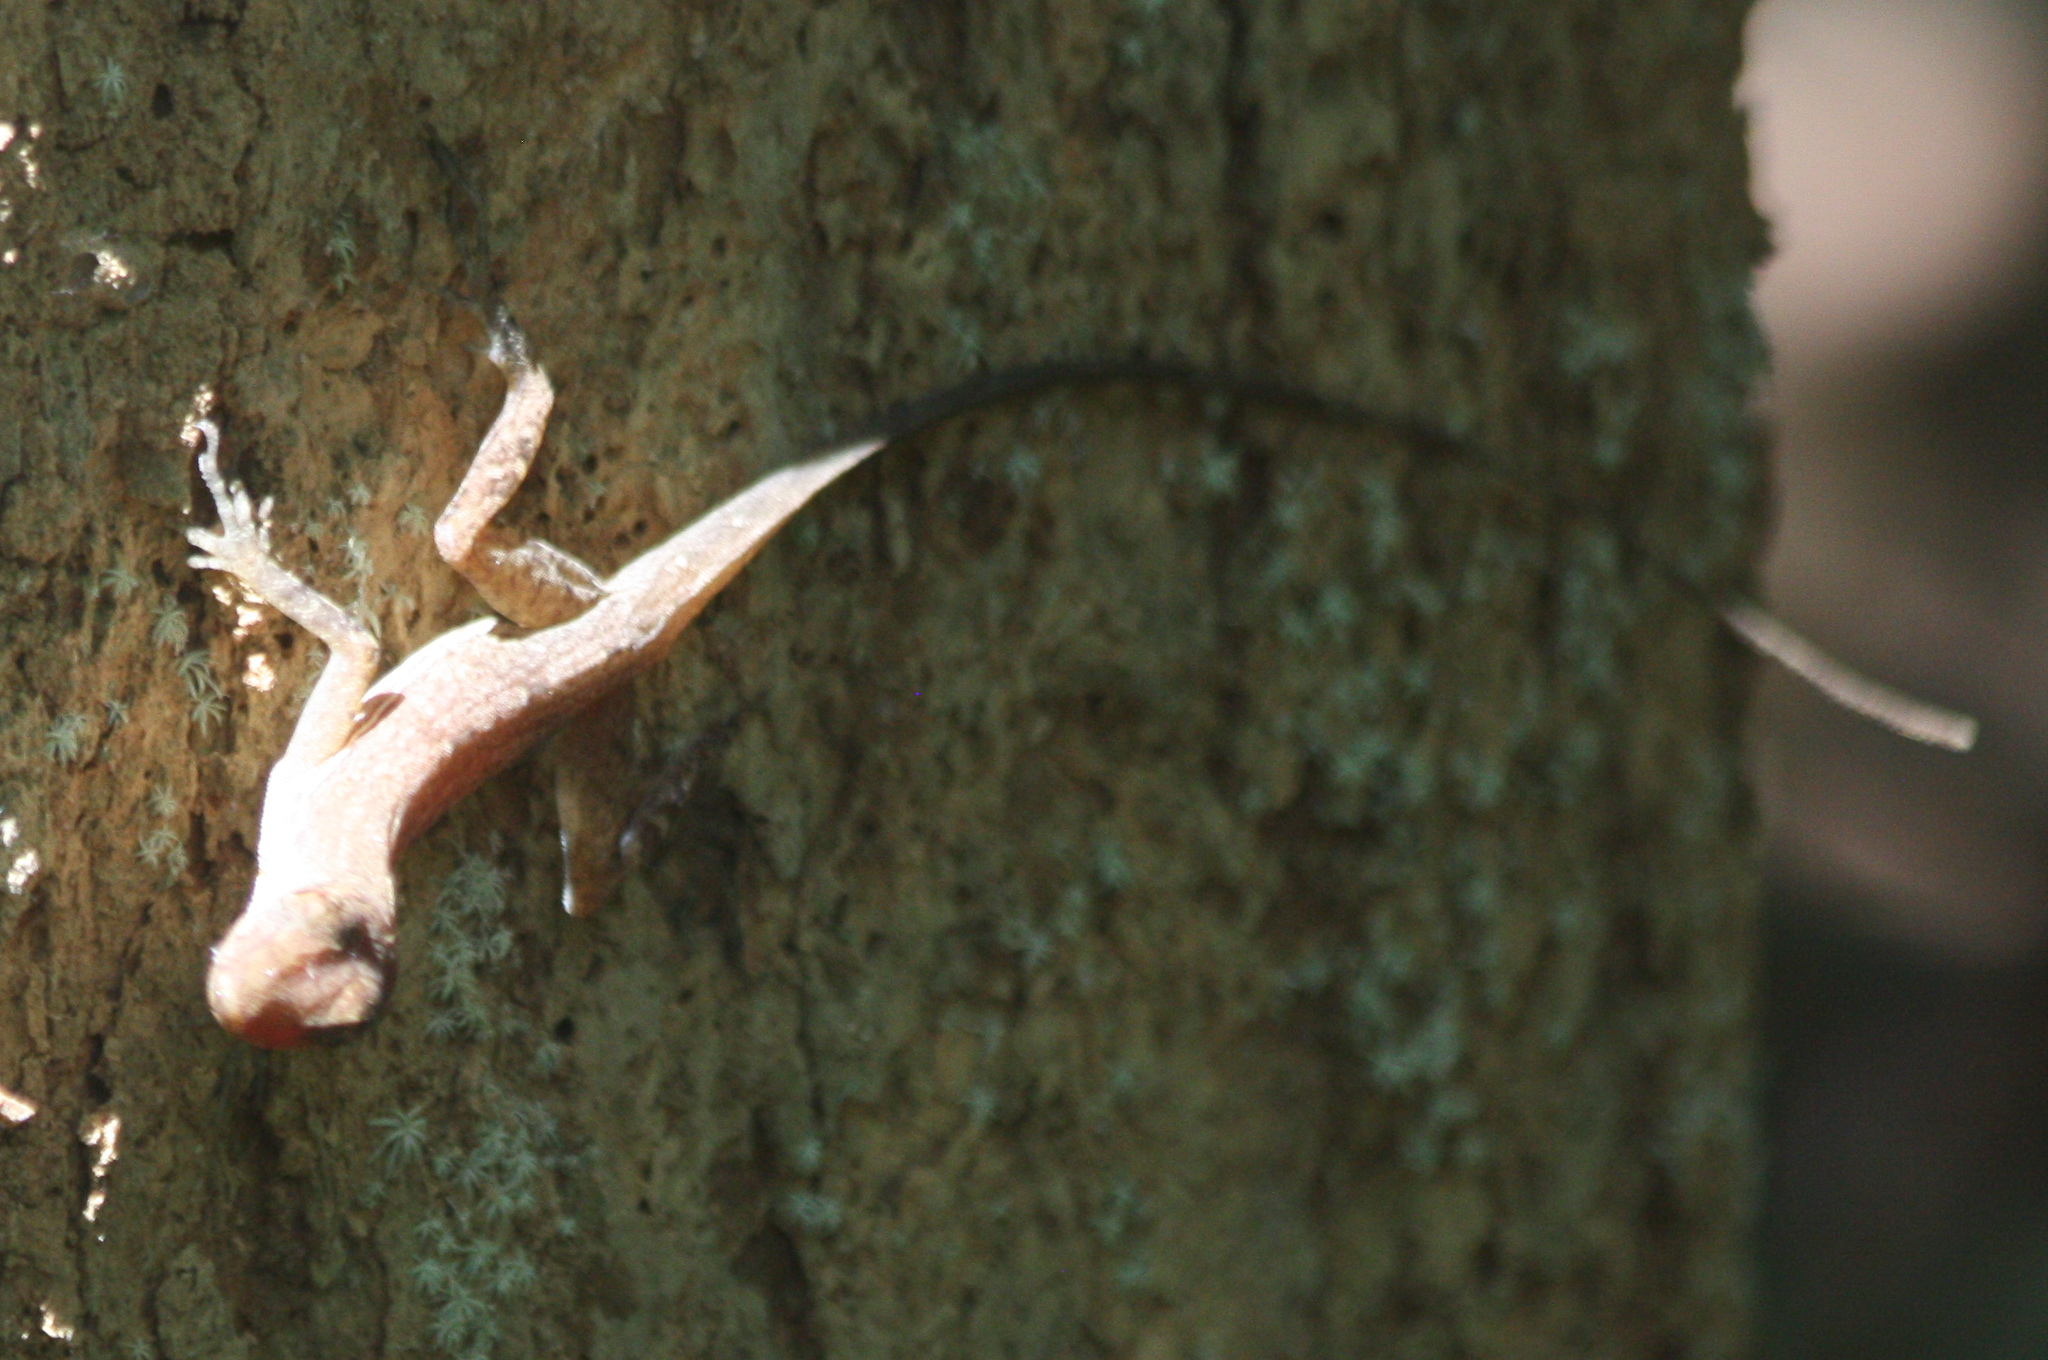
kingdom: Animalia
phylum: Chordata
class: Squamata
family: Dactyloidae
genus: Anolis
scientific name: Anolis osa
